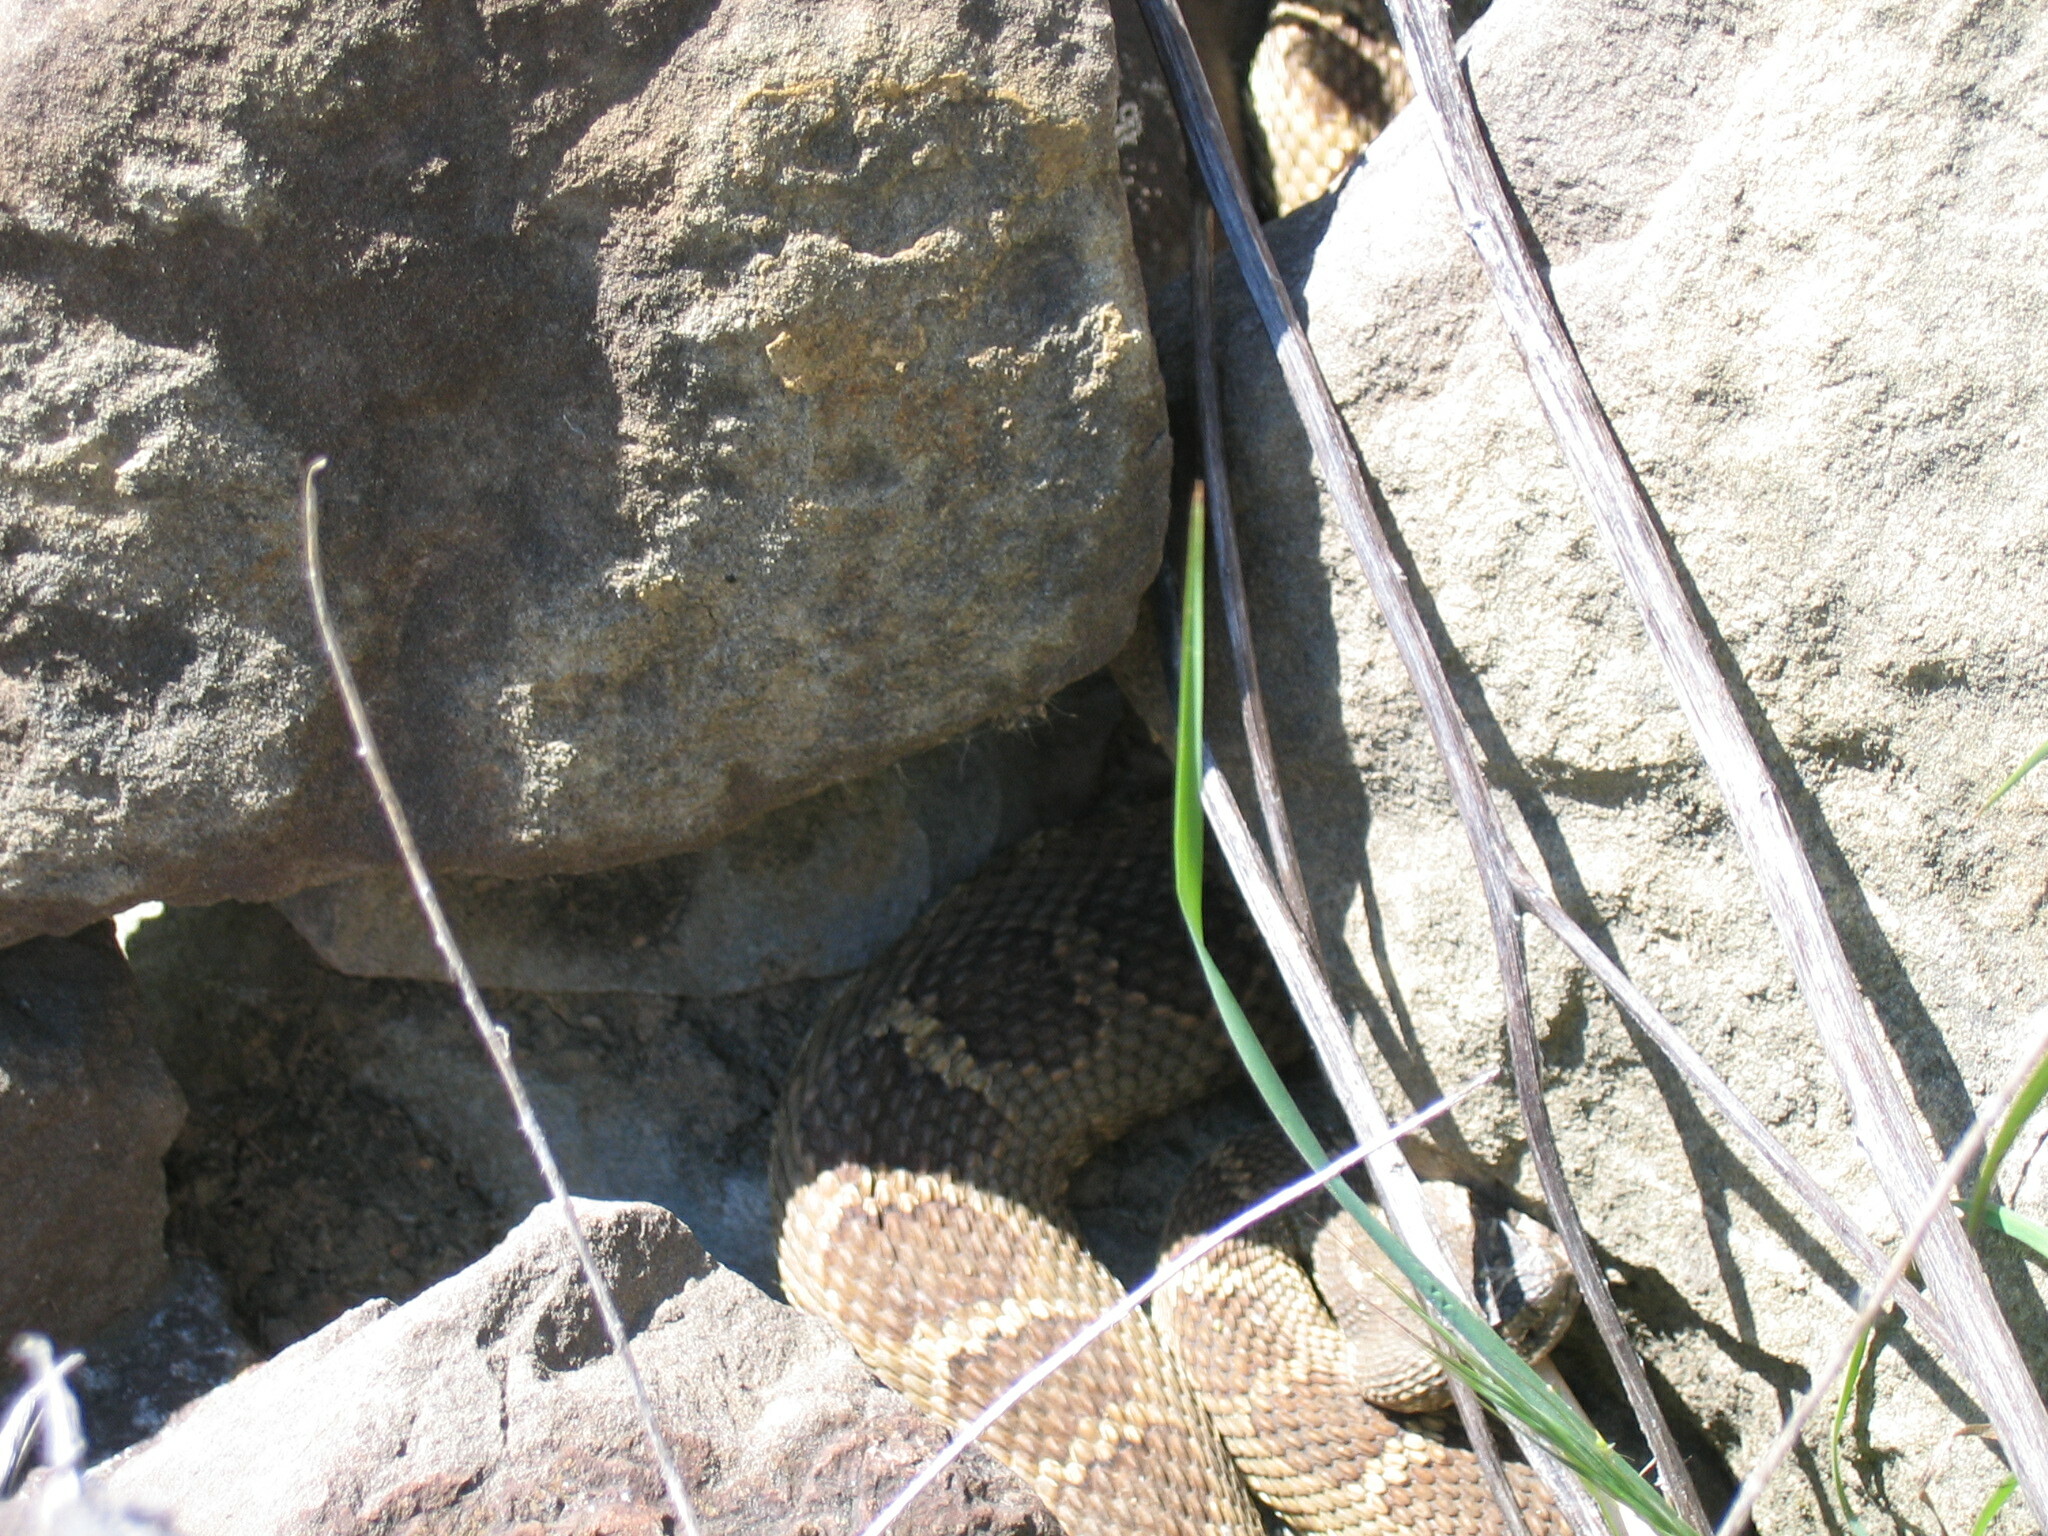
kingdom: Animalia
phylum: Chordata
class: Squamata
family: Viperidae
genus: Crotalus
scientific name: Crotalus oreganus
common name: Abyssus
